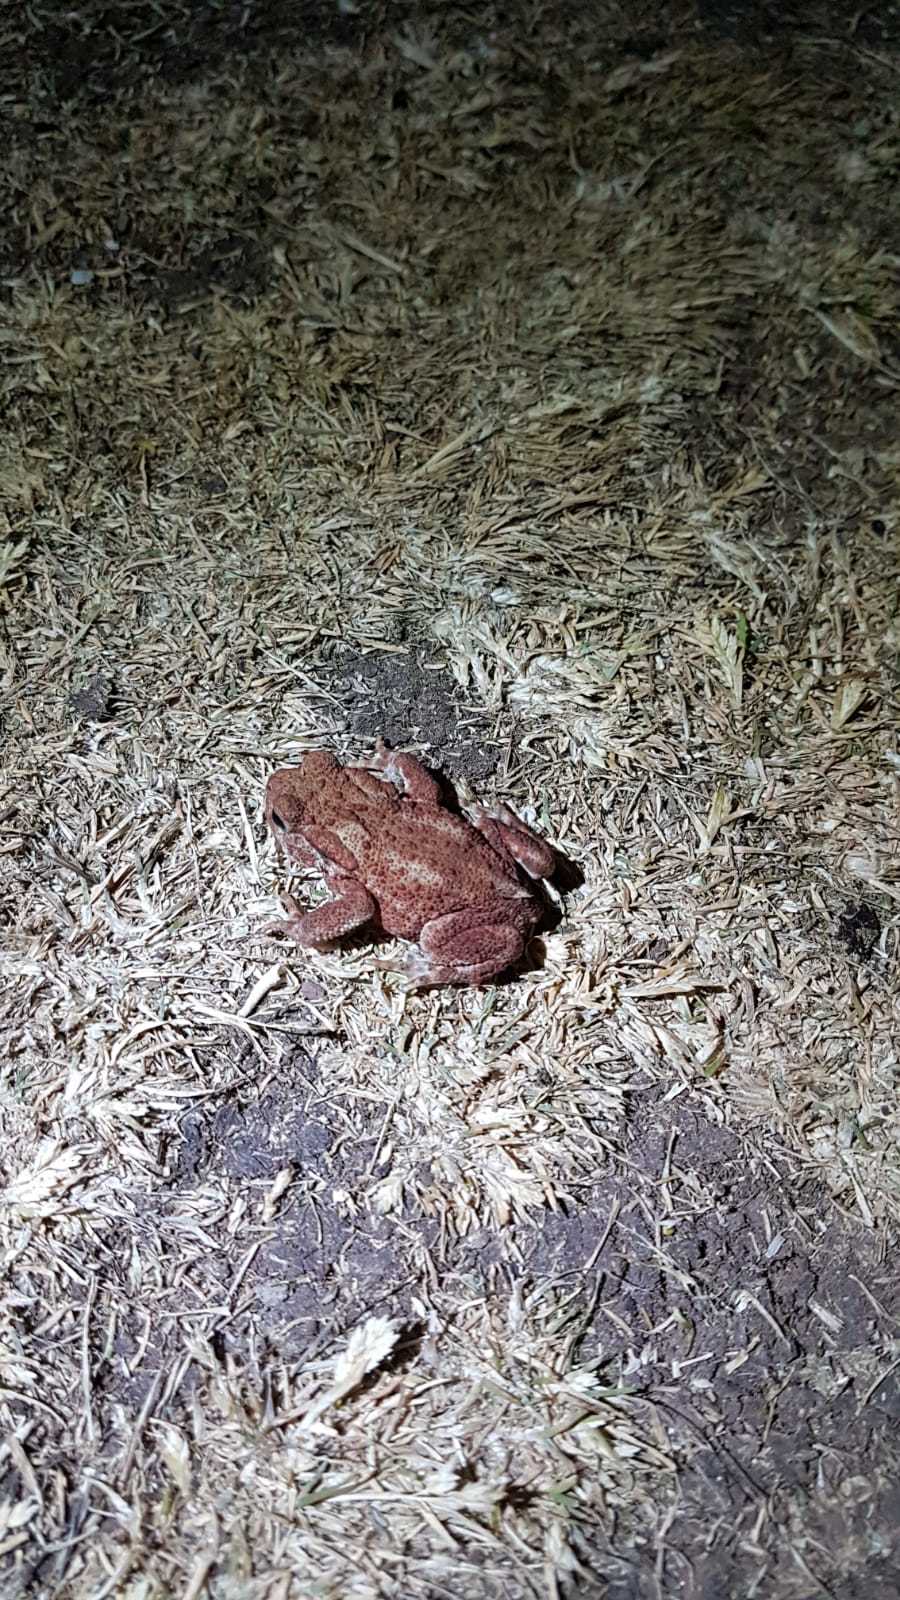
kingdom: Animalia
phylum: Chordata
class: Amphibia
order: Anura
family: Bufonidae
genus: Bufo
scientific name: Bufo bufo
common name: Common toad
